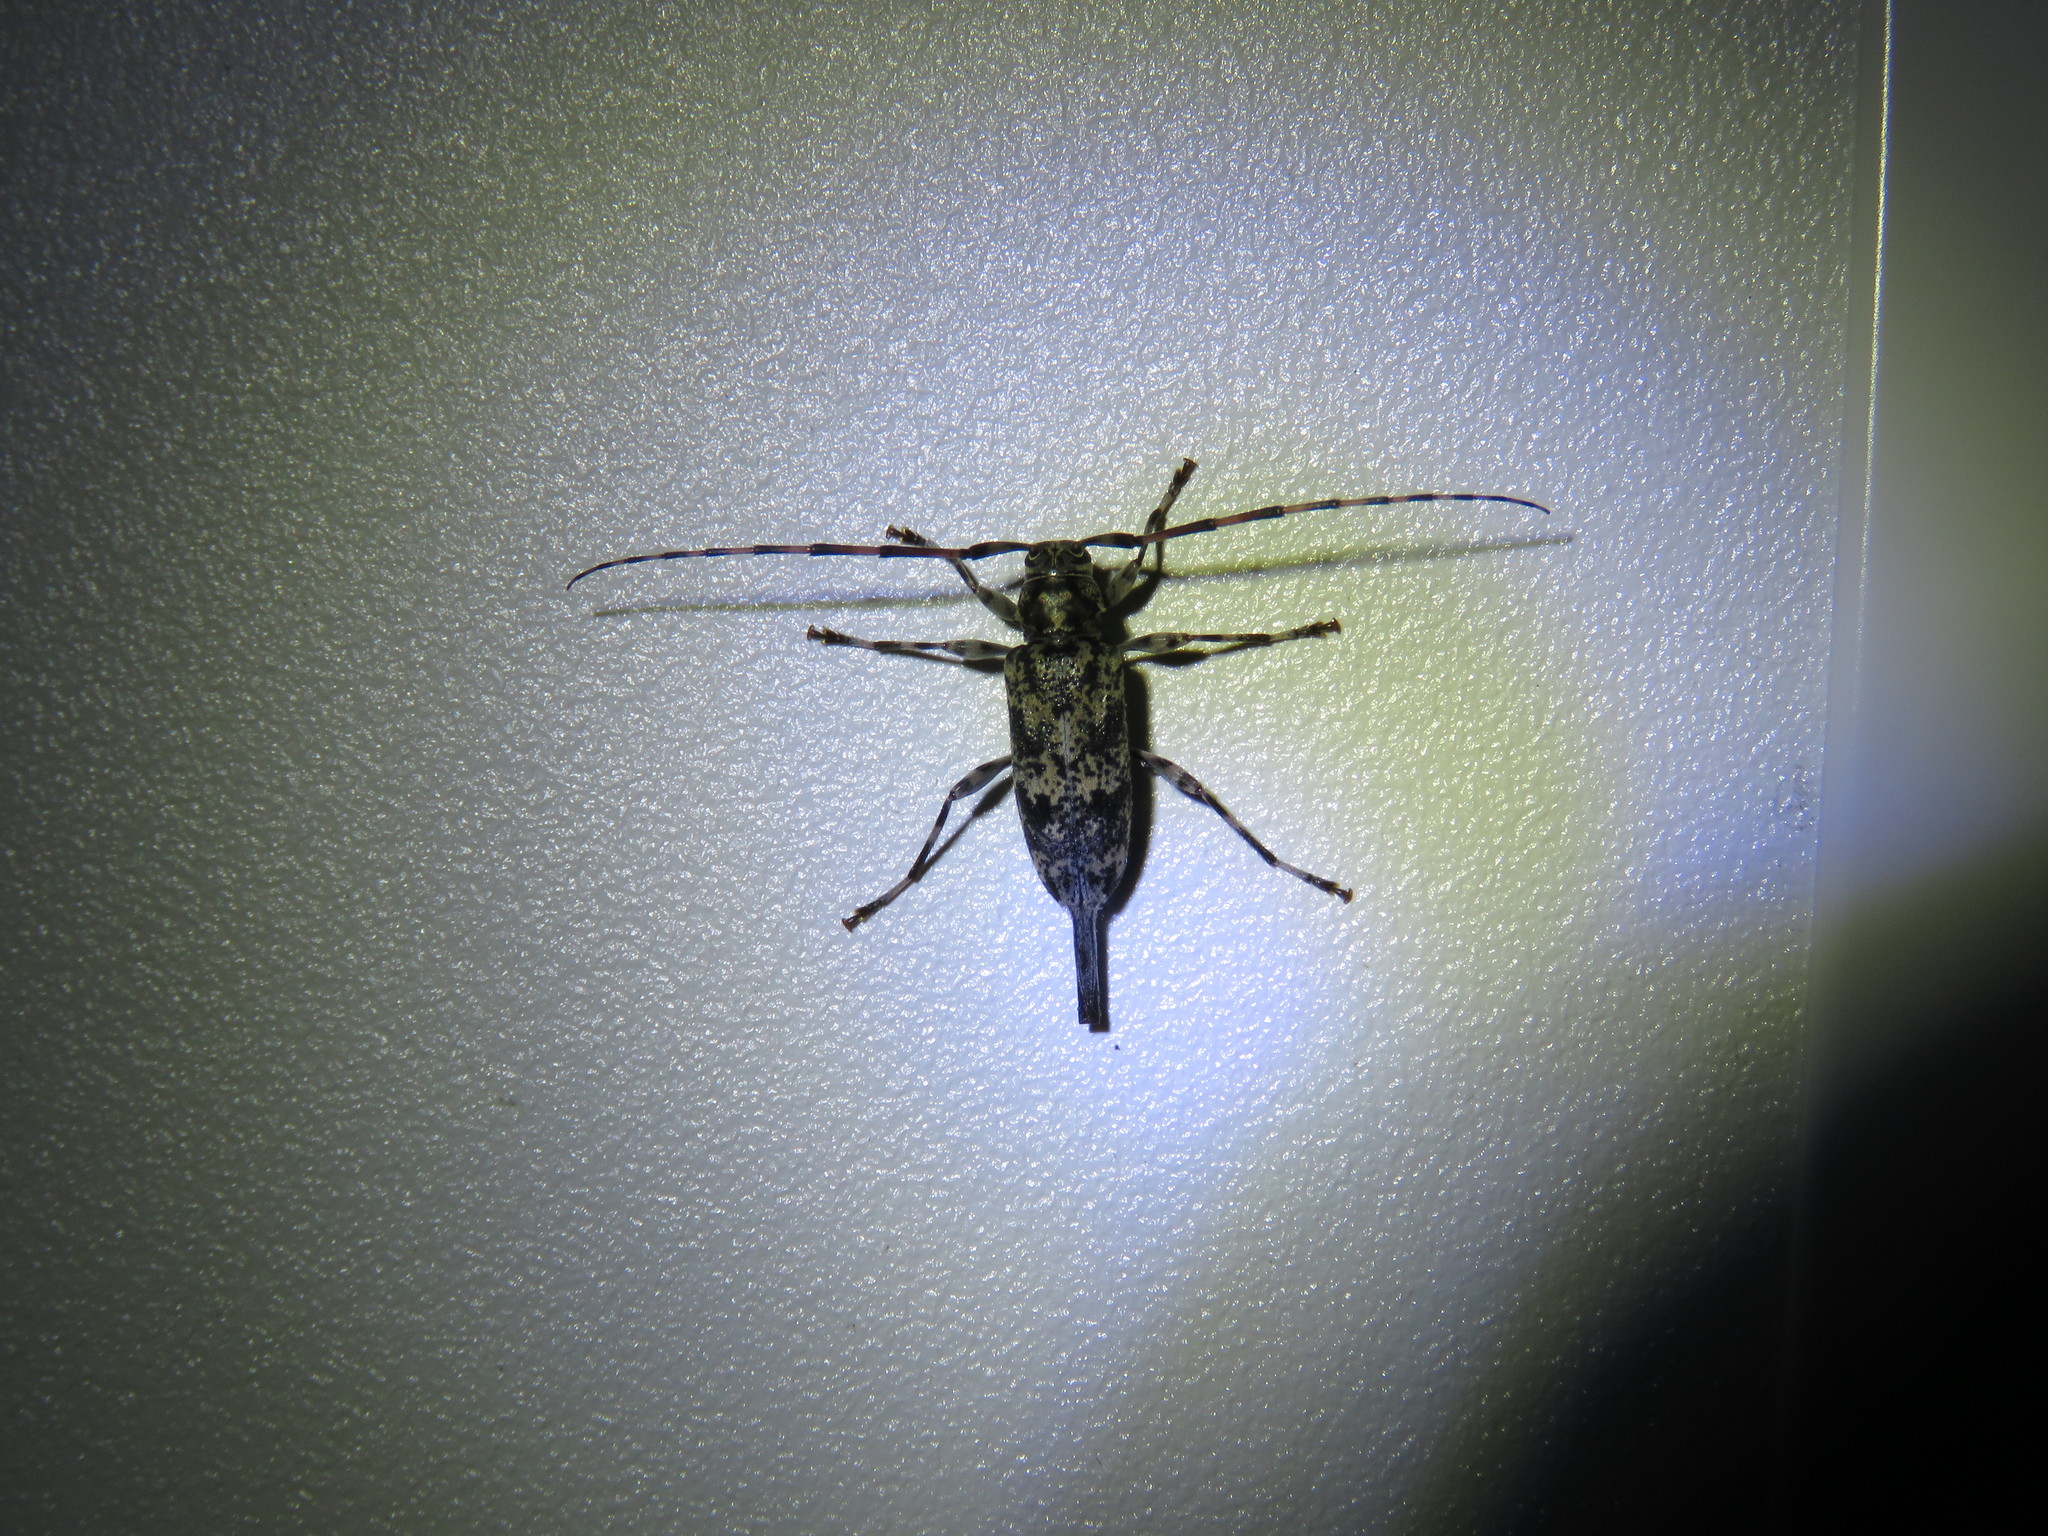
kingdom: Animalia
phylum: Arthropoda
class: Insecta
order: Coleoptera
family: Cerambycidae
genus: Graphisurus
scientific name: Graphisurus fasciatus
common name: Banded graphisurus
